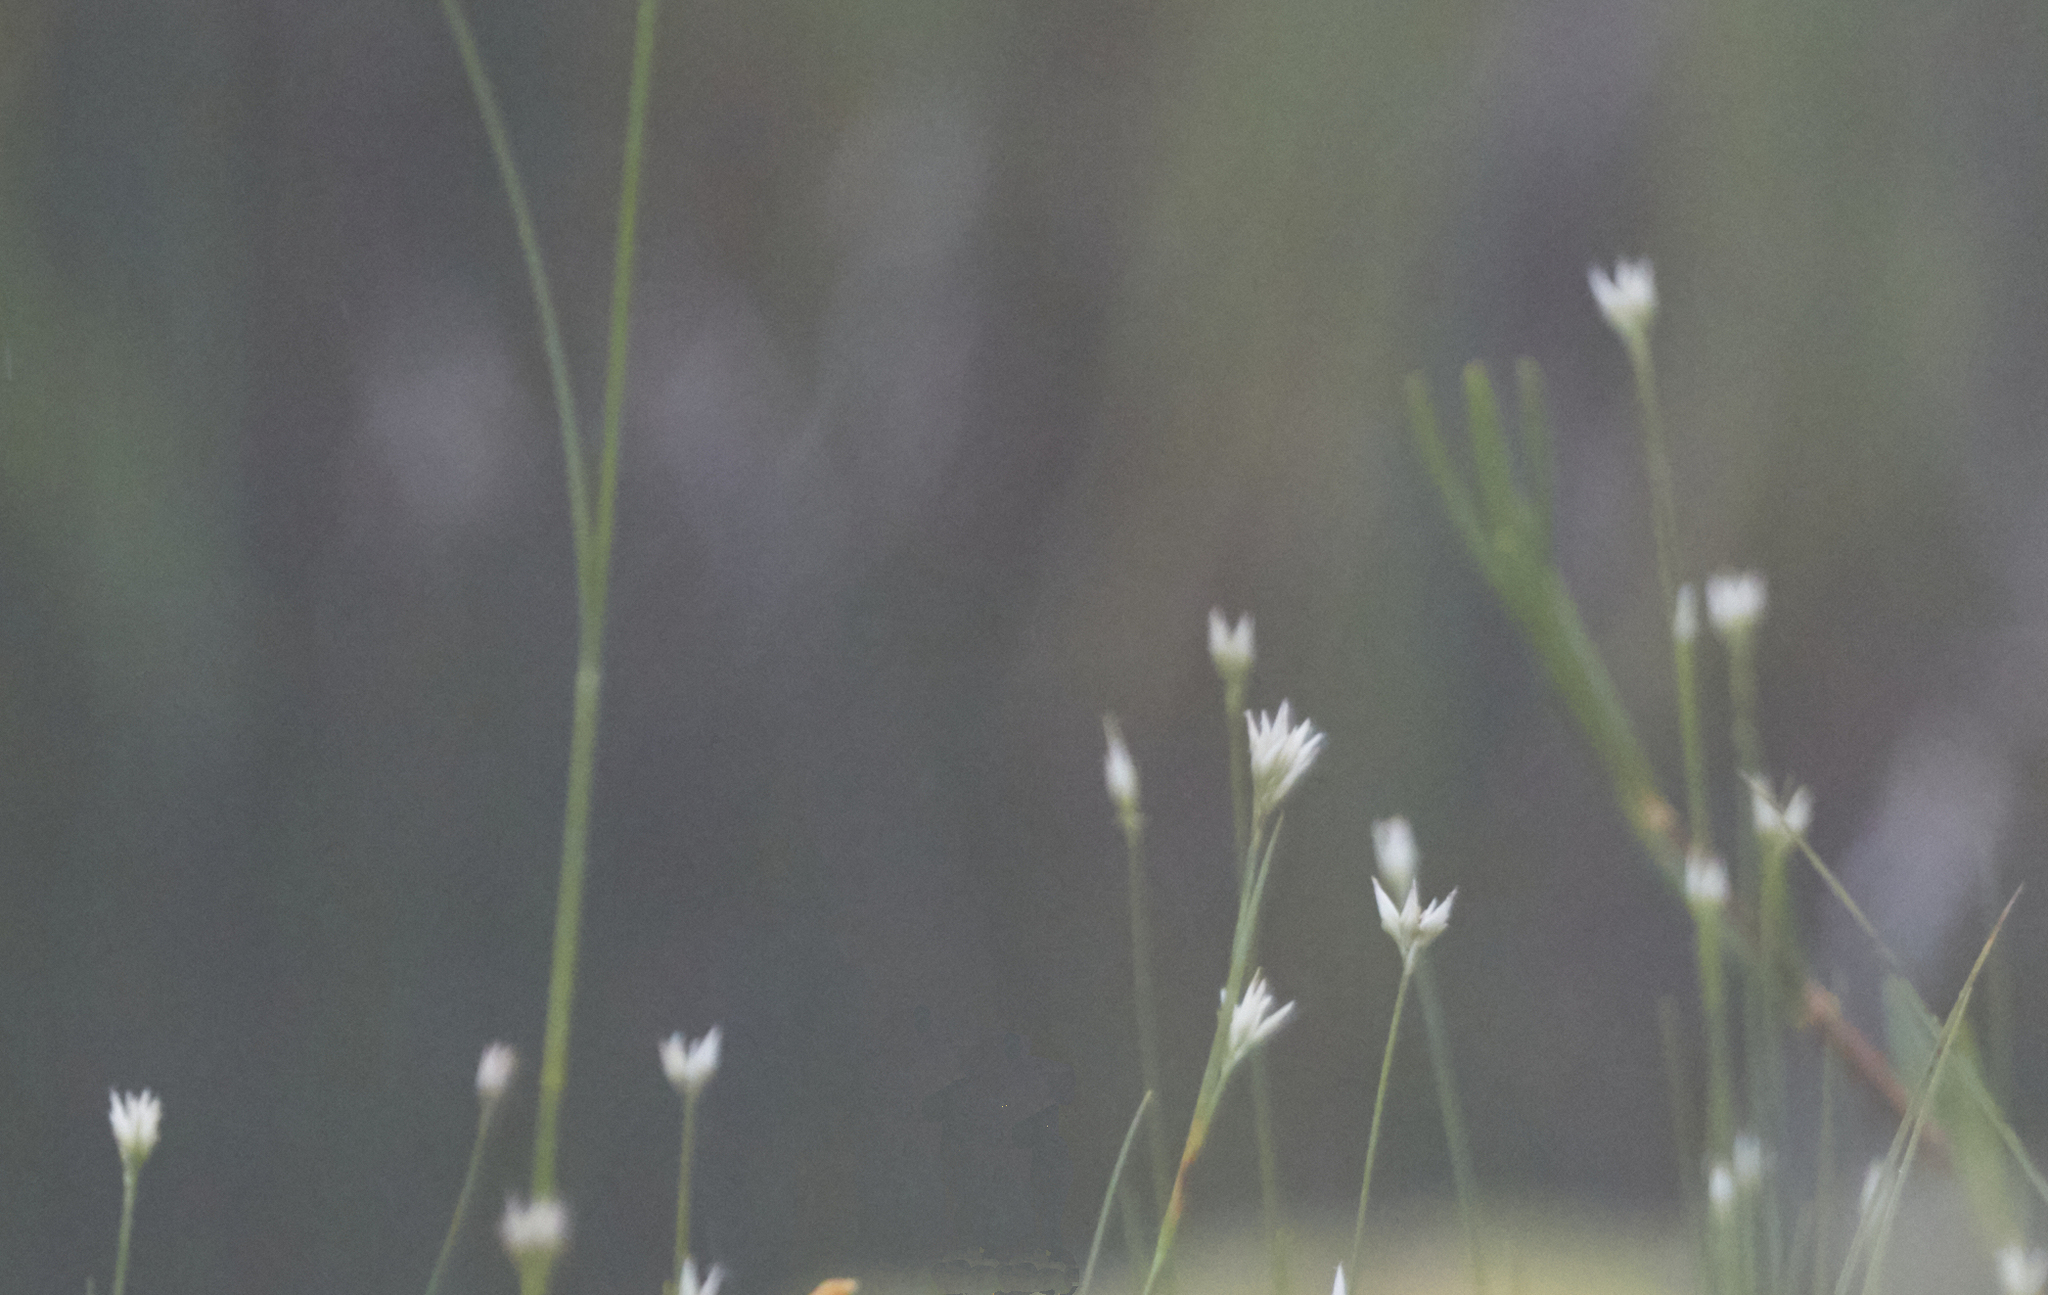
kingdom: Plantae
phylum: Tracheophyta
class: Liliopsida
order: Poales
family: Cyperaceae
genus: Rhynchospora
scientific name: Rhynchospora alba
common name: White beak-sedge
